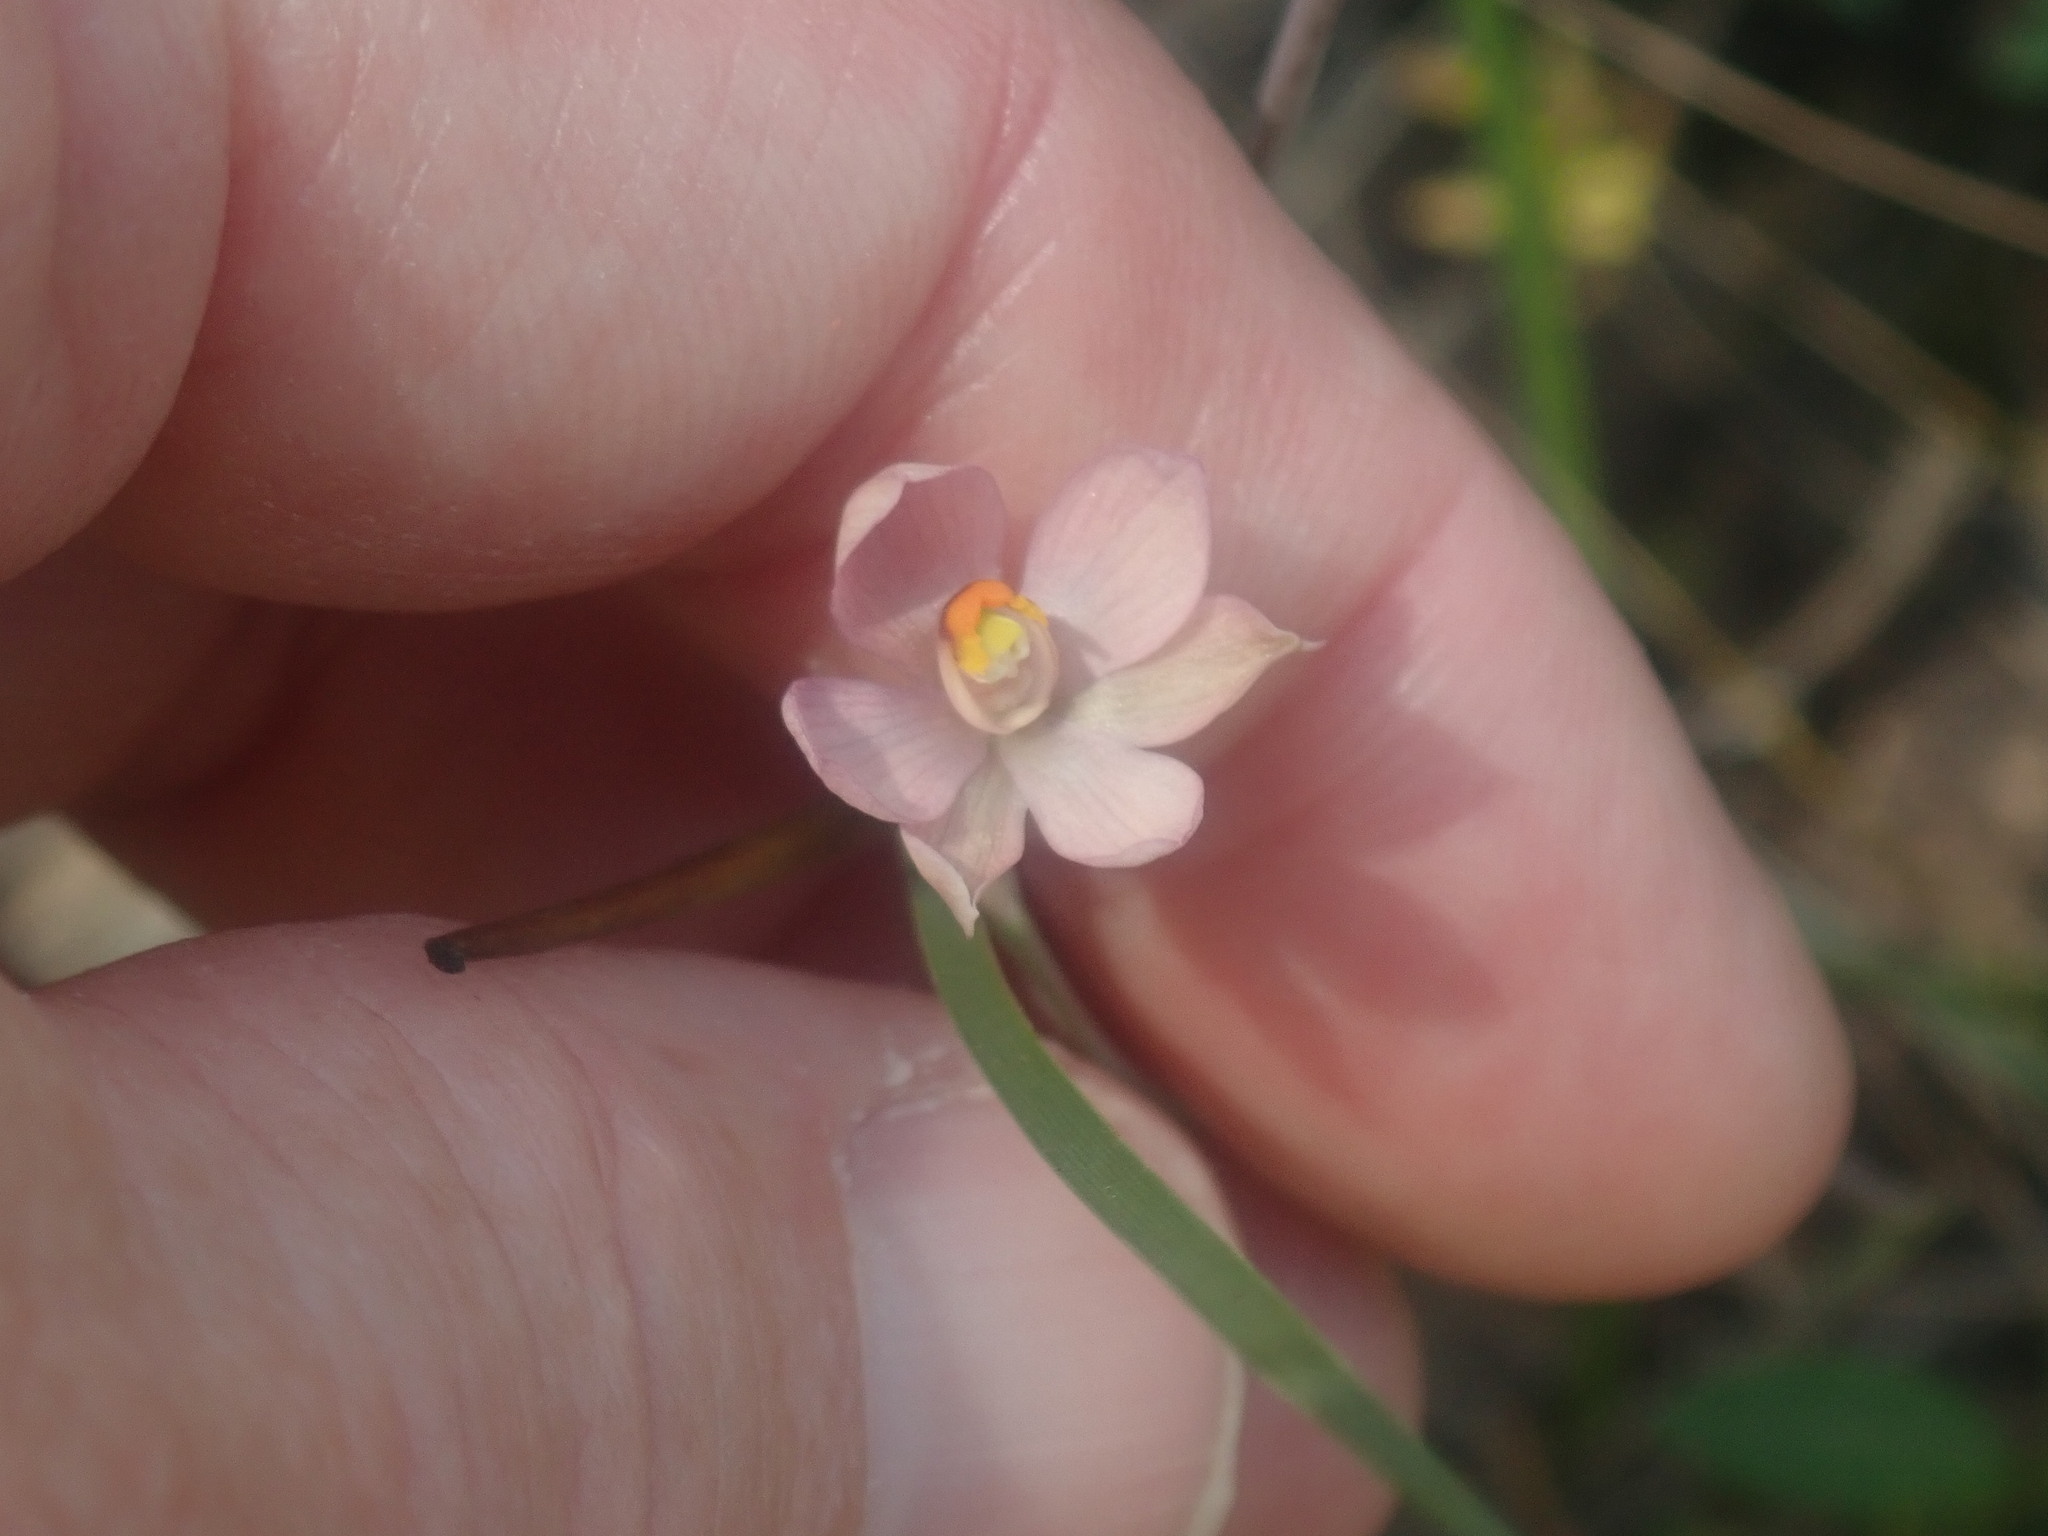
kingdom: Plantae
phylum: Tracheophyta
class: Liliopsida
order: Asparagales
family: Orchidaceae
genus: Thelymitra
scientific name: Thelymitra rubra
